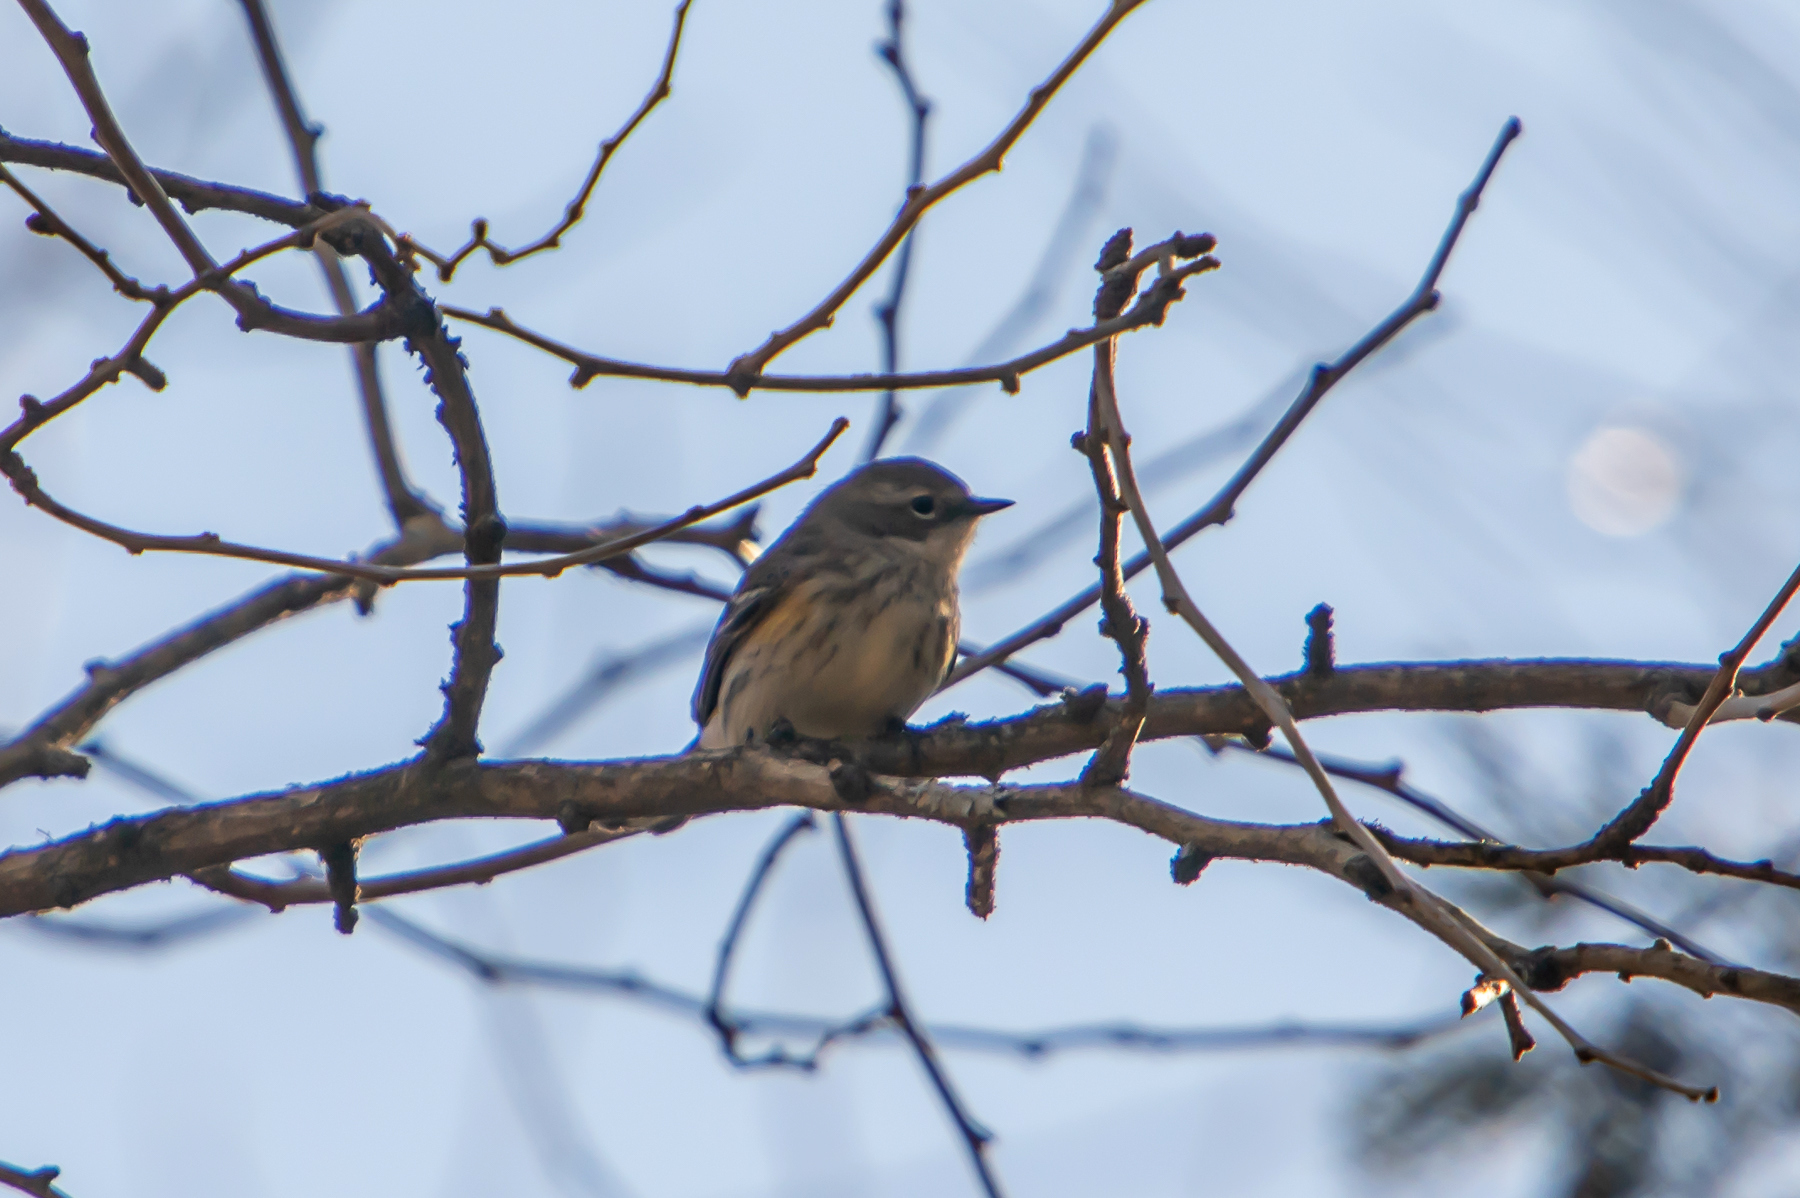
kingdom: Animalia
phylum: Chordata
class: Aves
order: Passeriformes
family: Parulidae
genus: Setophaga
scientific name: Setophaga coronata
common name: Myrtle warbler
